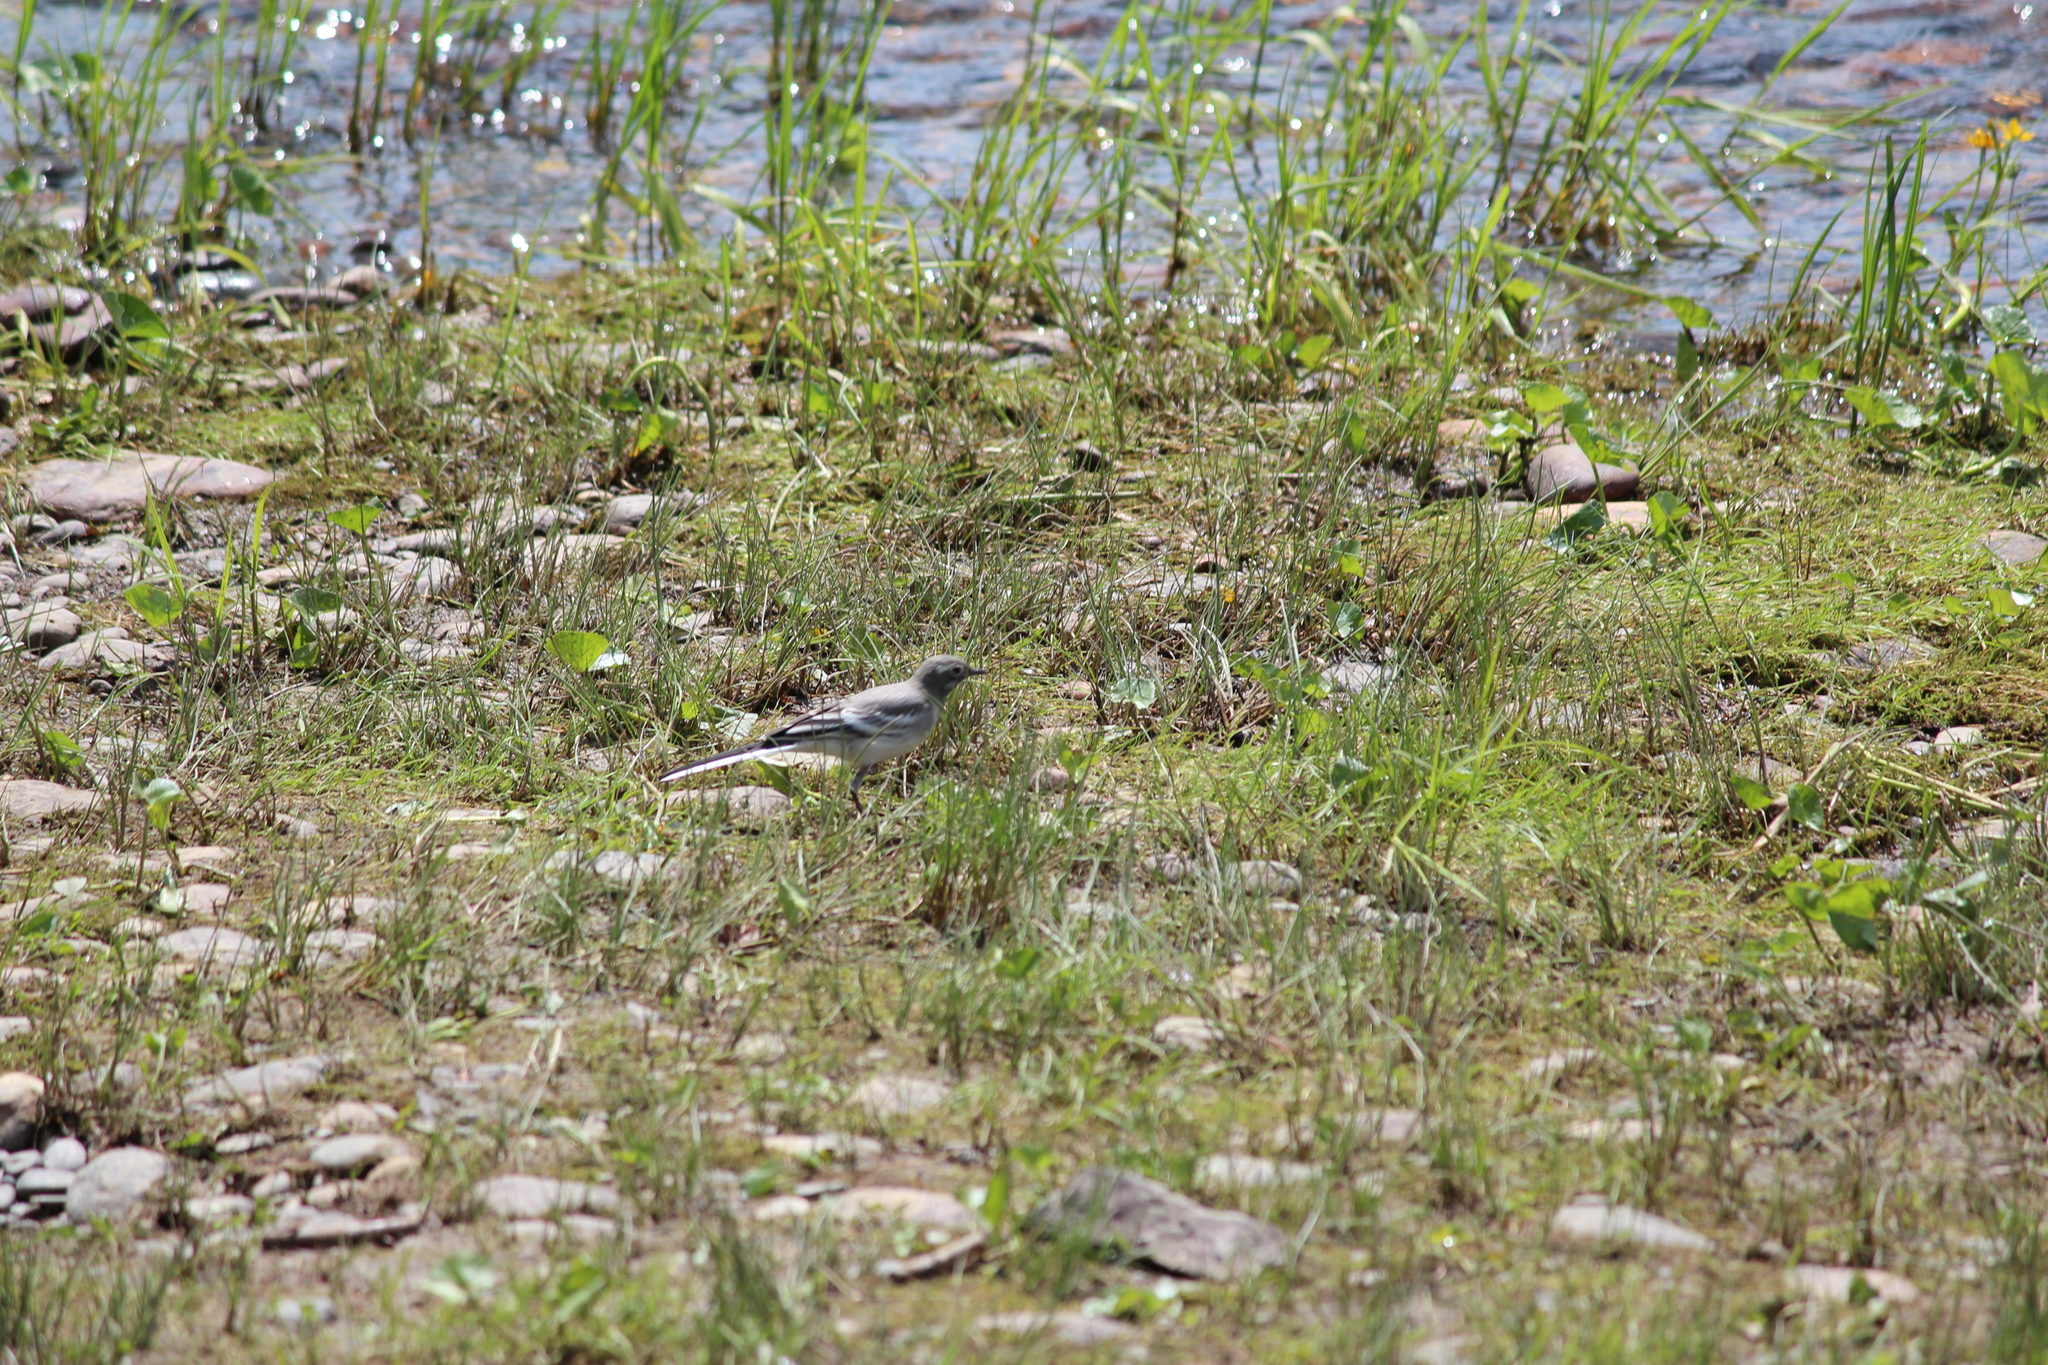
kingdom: Animalia
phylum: Chordata
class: Aves
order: Passeriformes
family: Motacillidae
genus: Motacilla
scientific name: Motacilla alba
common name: White wagtail
